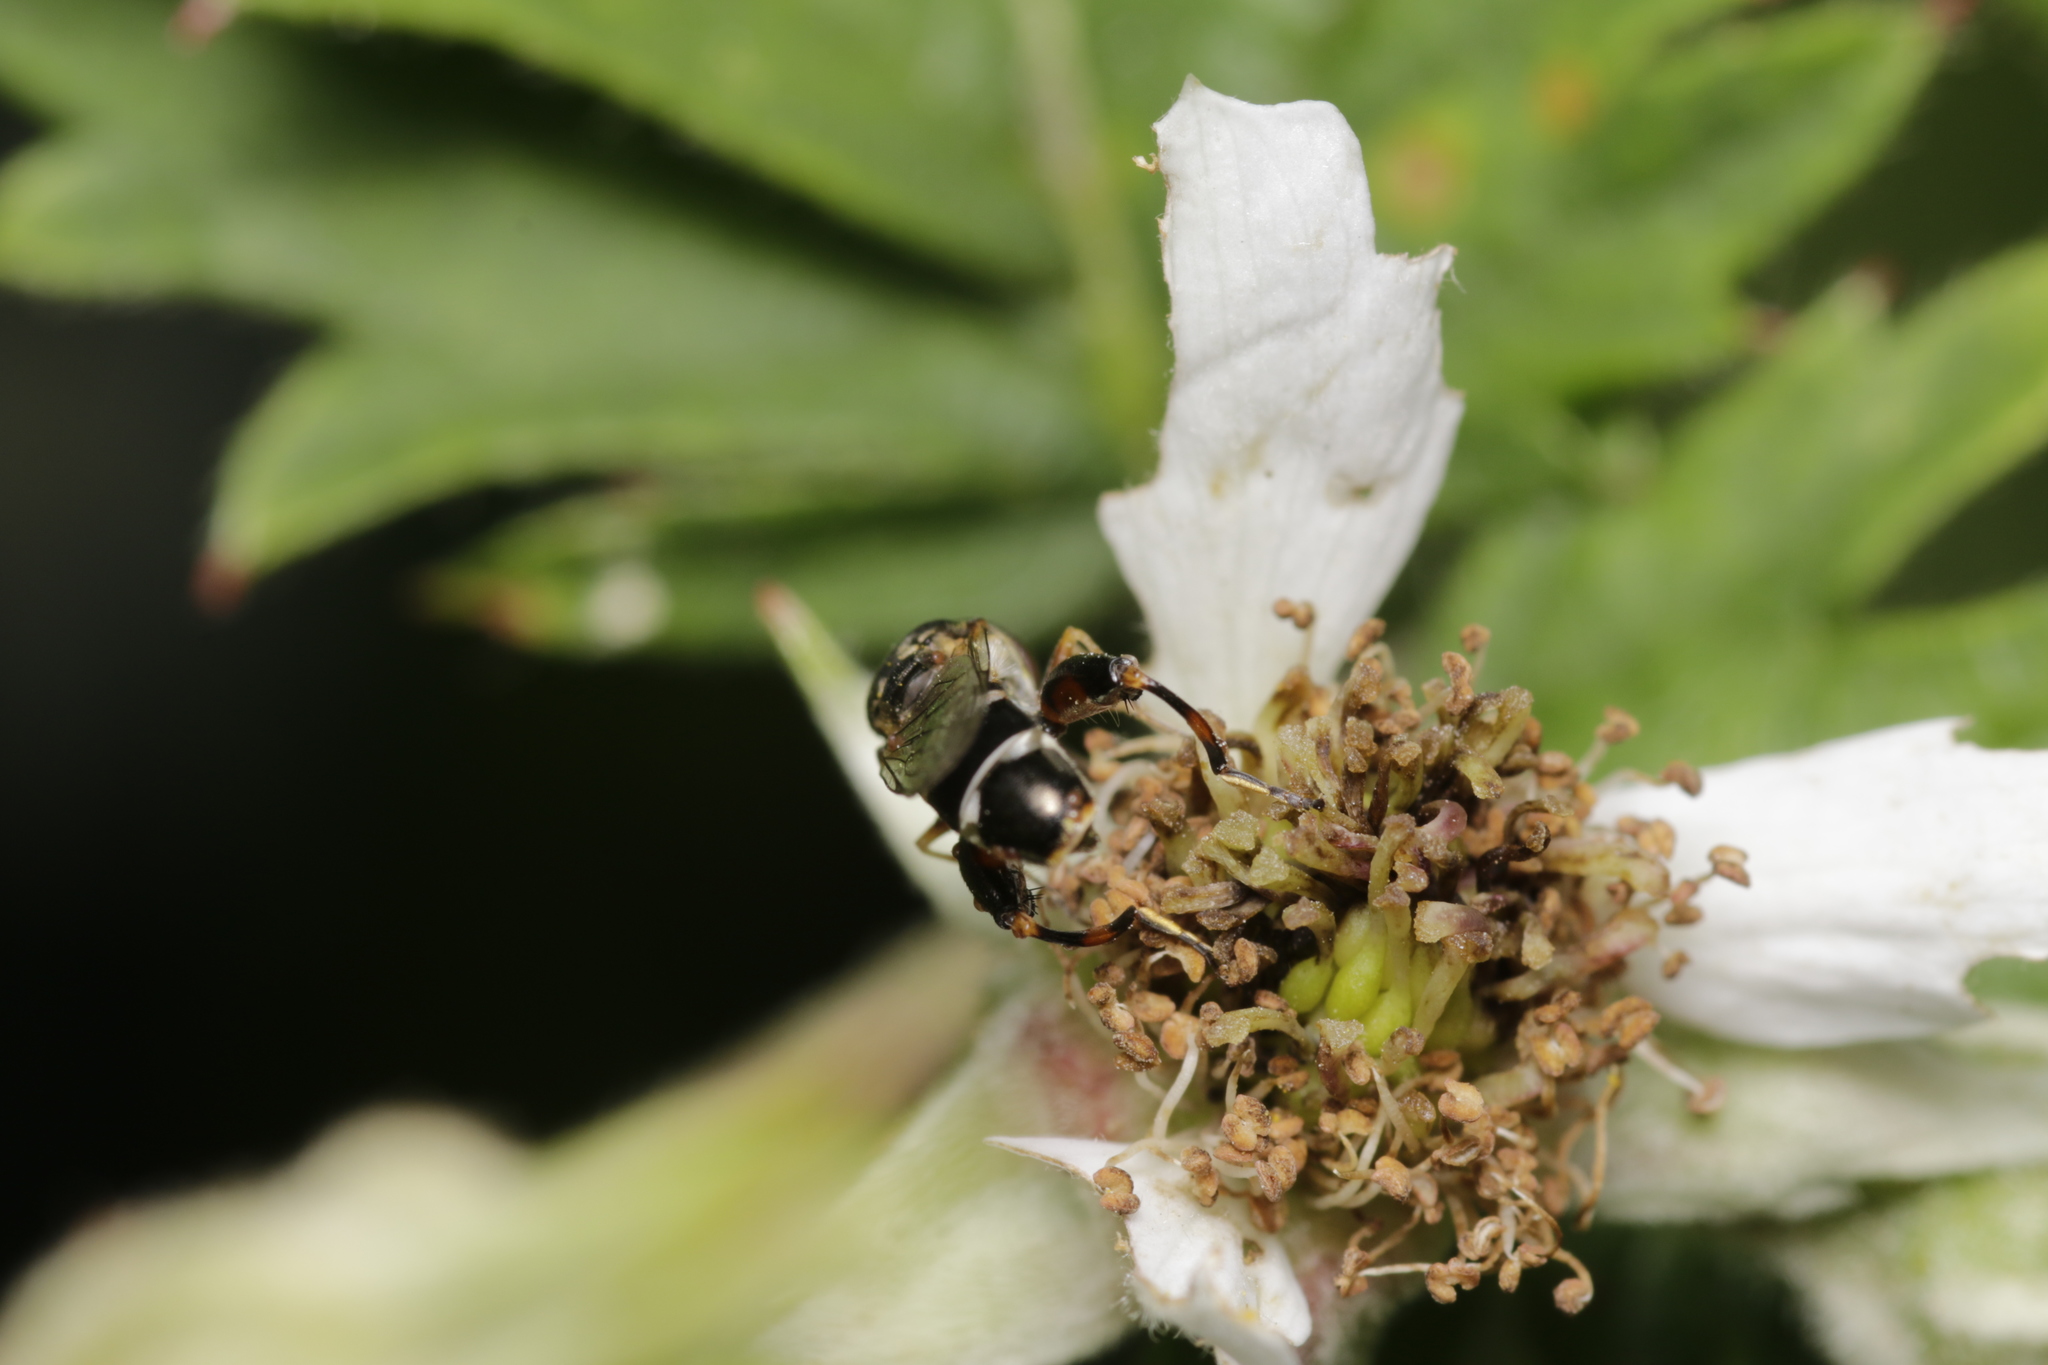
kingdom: Animalia
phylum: Arthropoda
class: Insecta
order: Diptera
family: Syrphidae
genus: Syritta
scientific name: Syritta pipiens
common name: Hover fly
